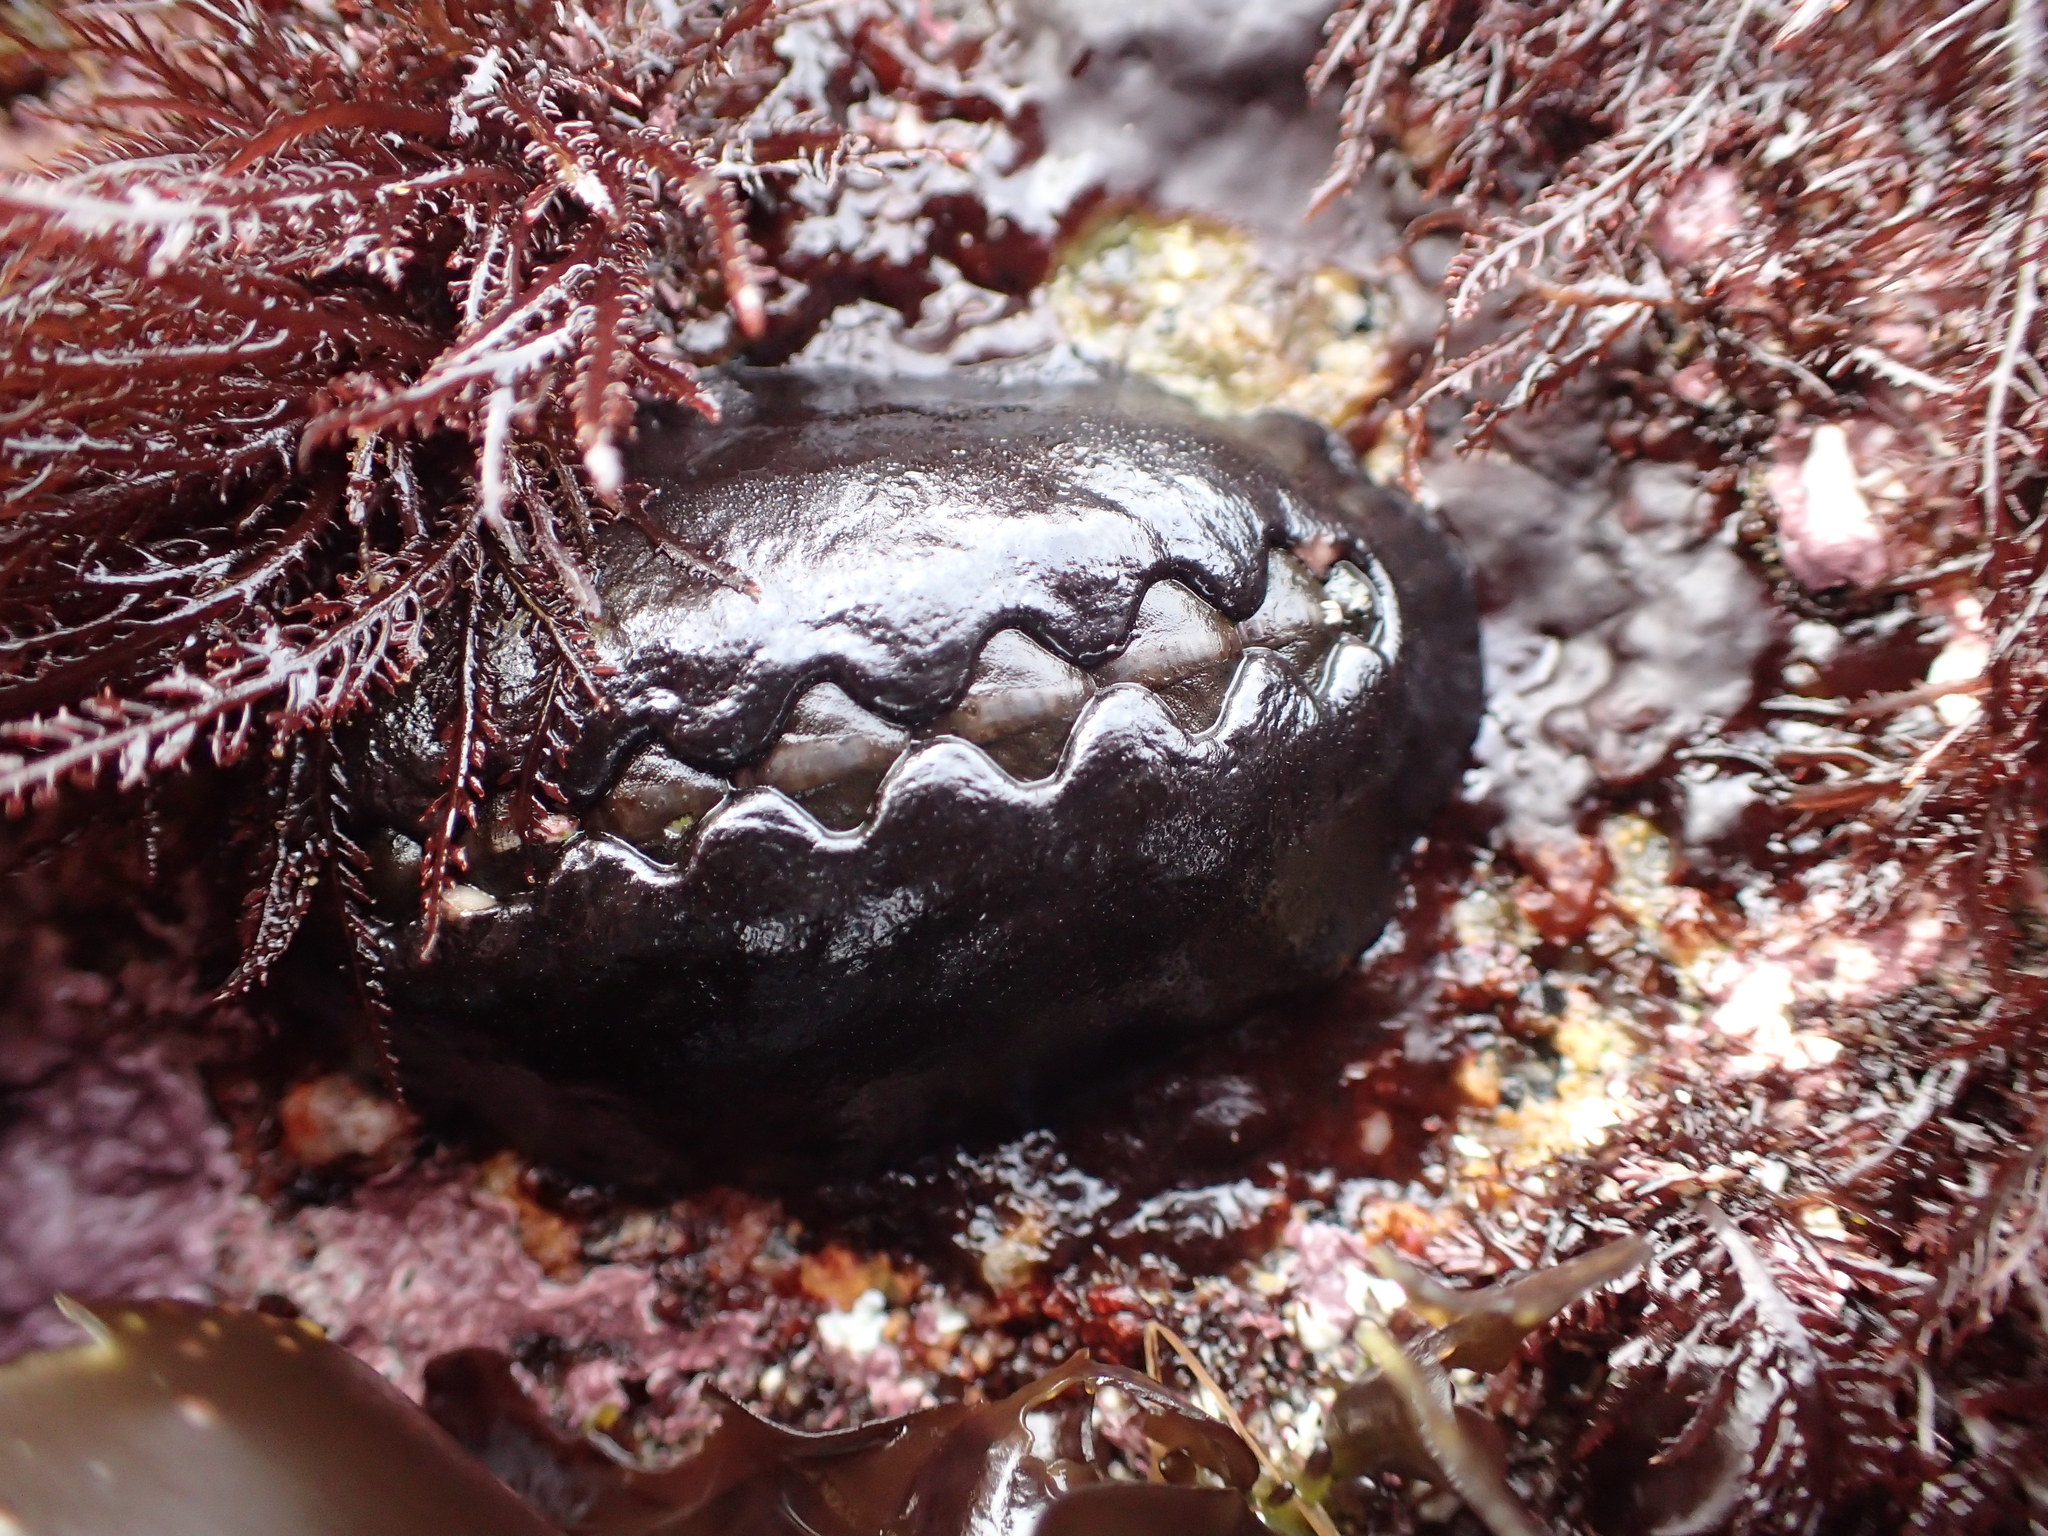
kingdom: Animalia
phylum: Mollusca
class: Polyplacophora
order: Chitonida
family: Mopaliidae
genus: Katharina
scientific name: Katharina tunicata
